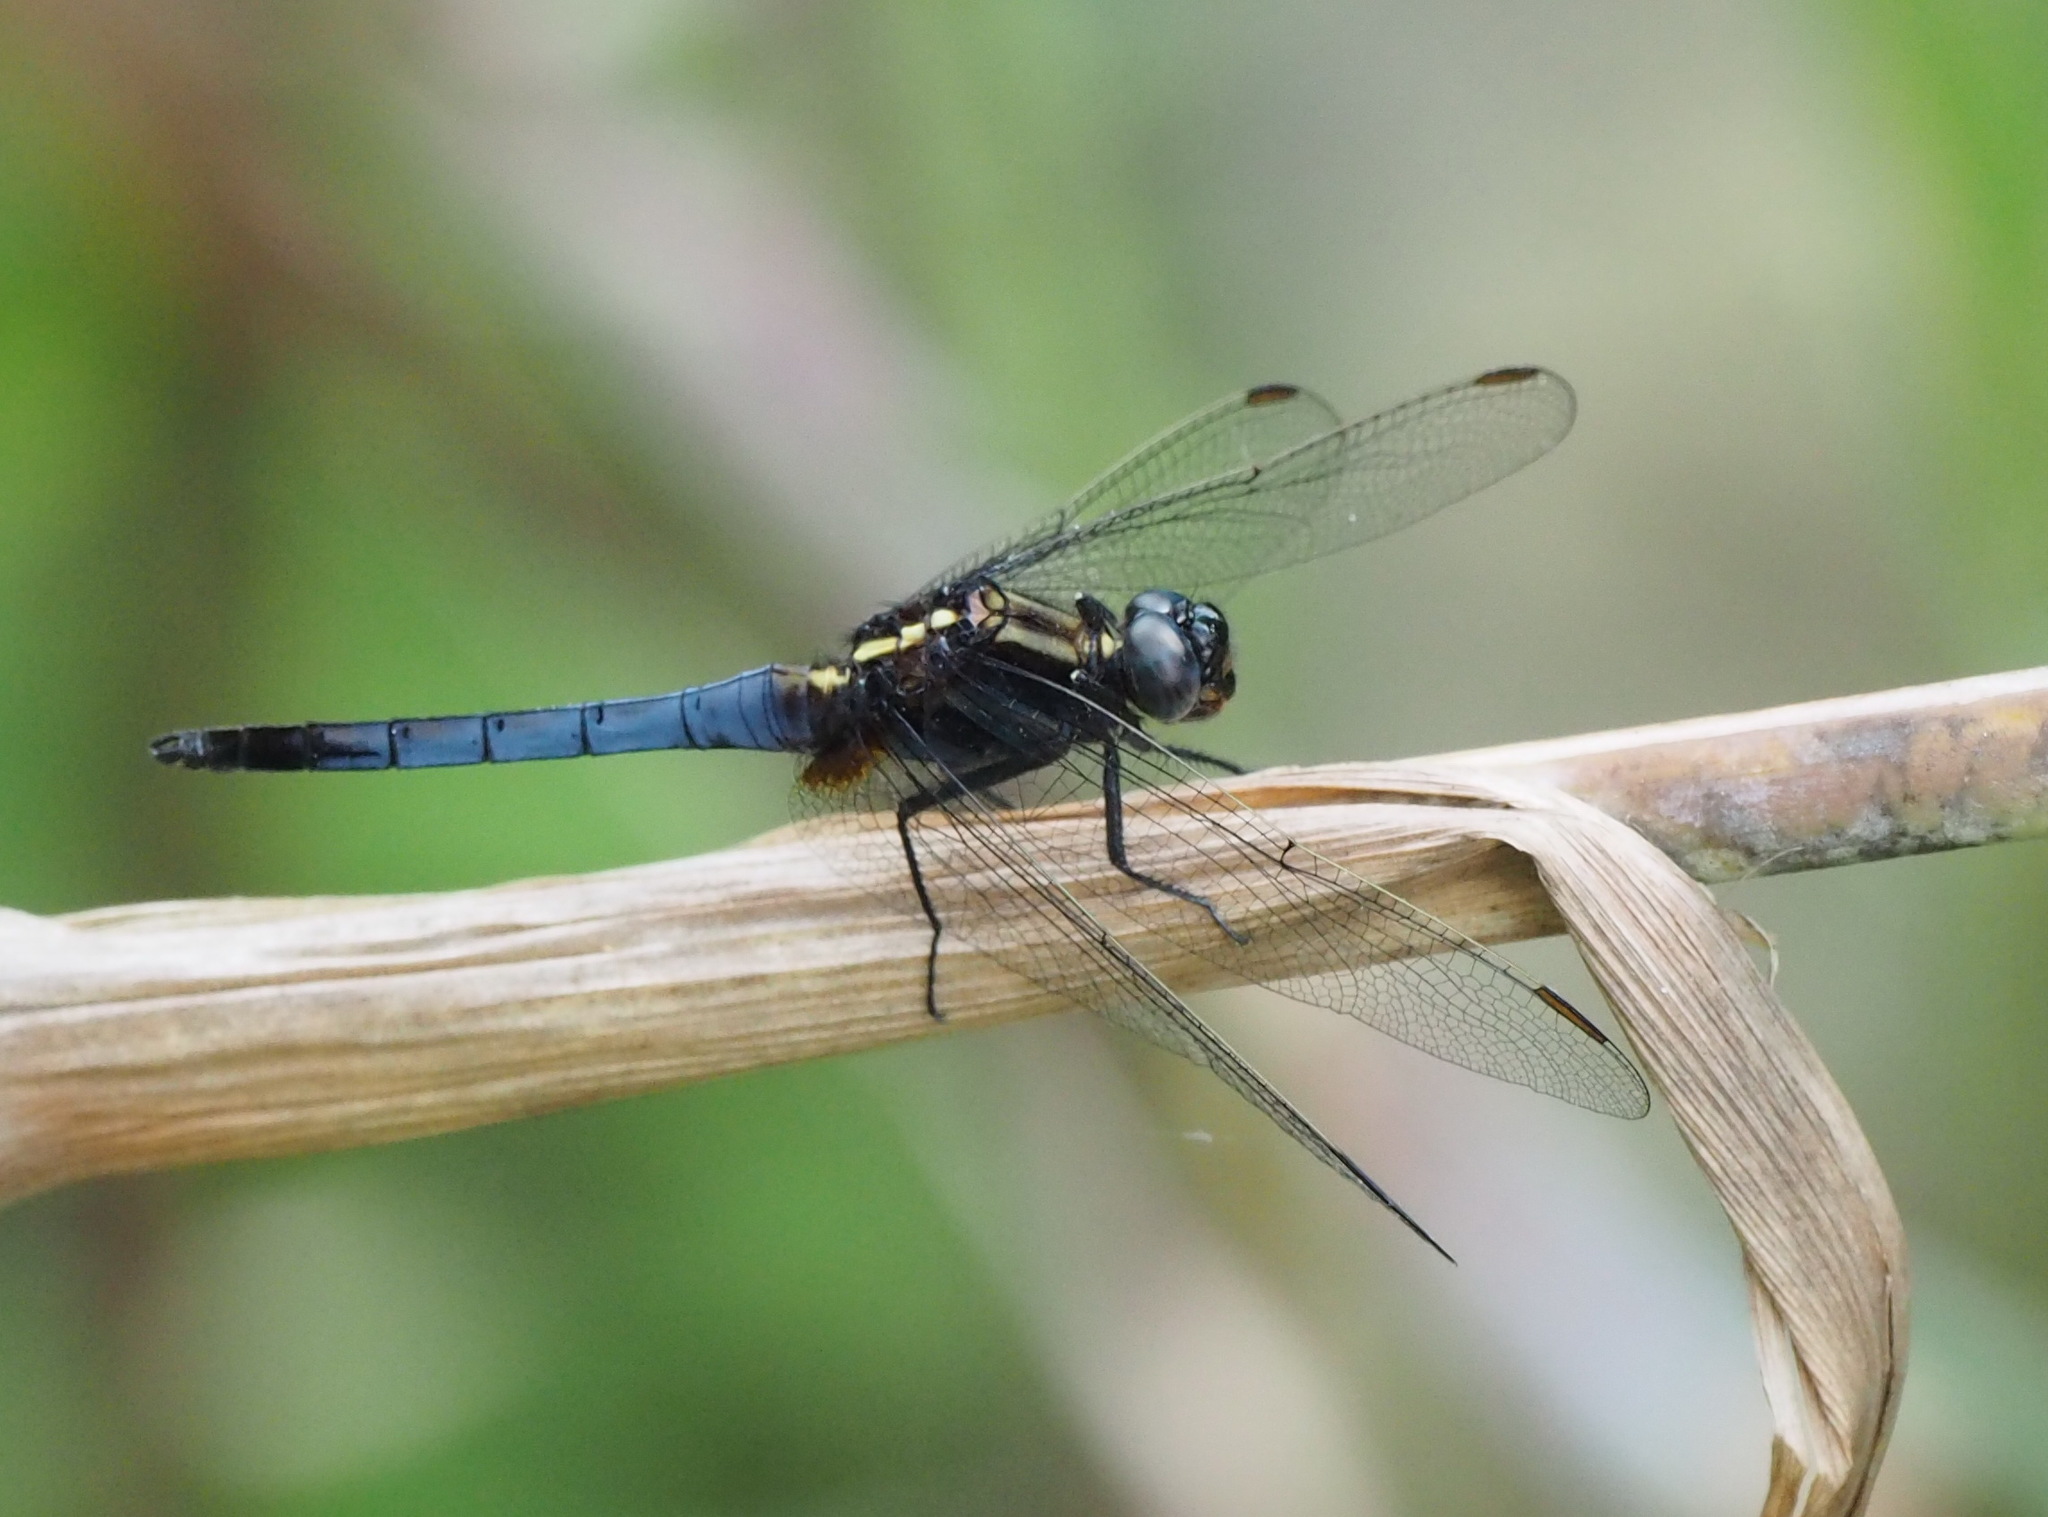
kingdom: Animalia
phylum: Arthropoda
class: Insecta
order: Odonata
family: Libellulidae
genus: Orthetrum
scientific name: Orthetrum glaucum
